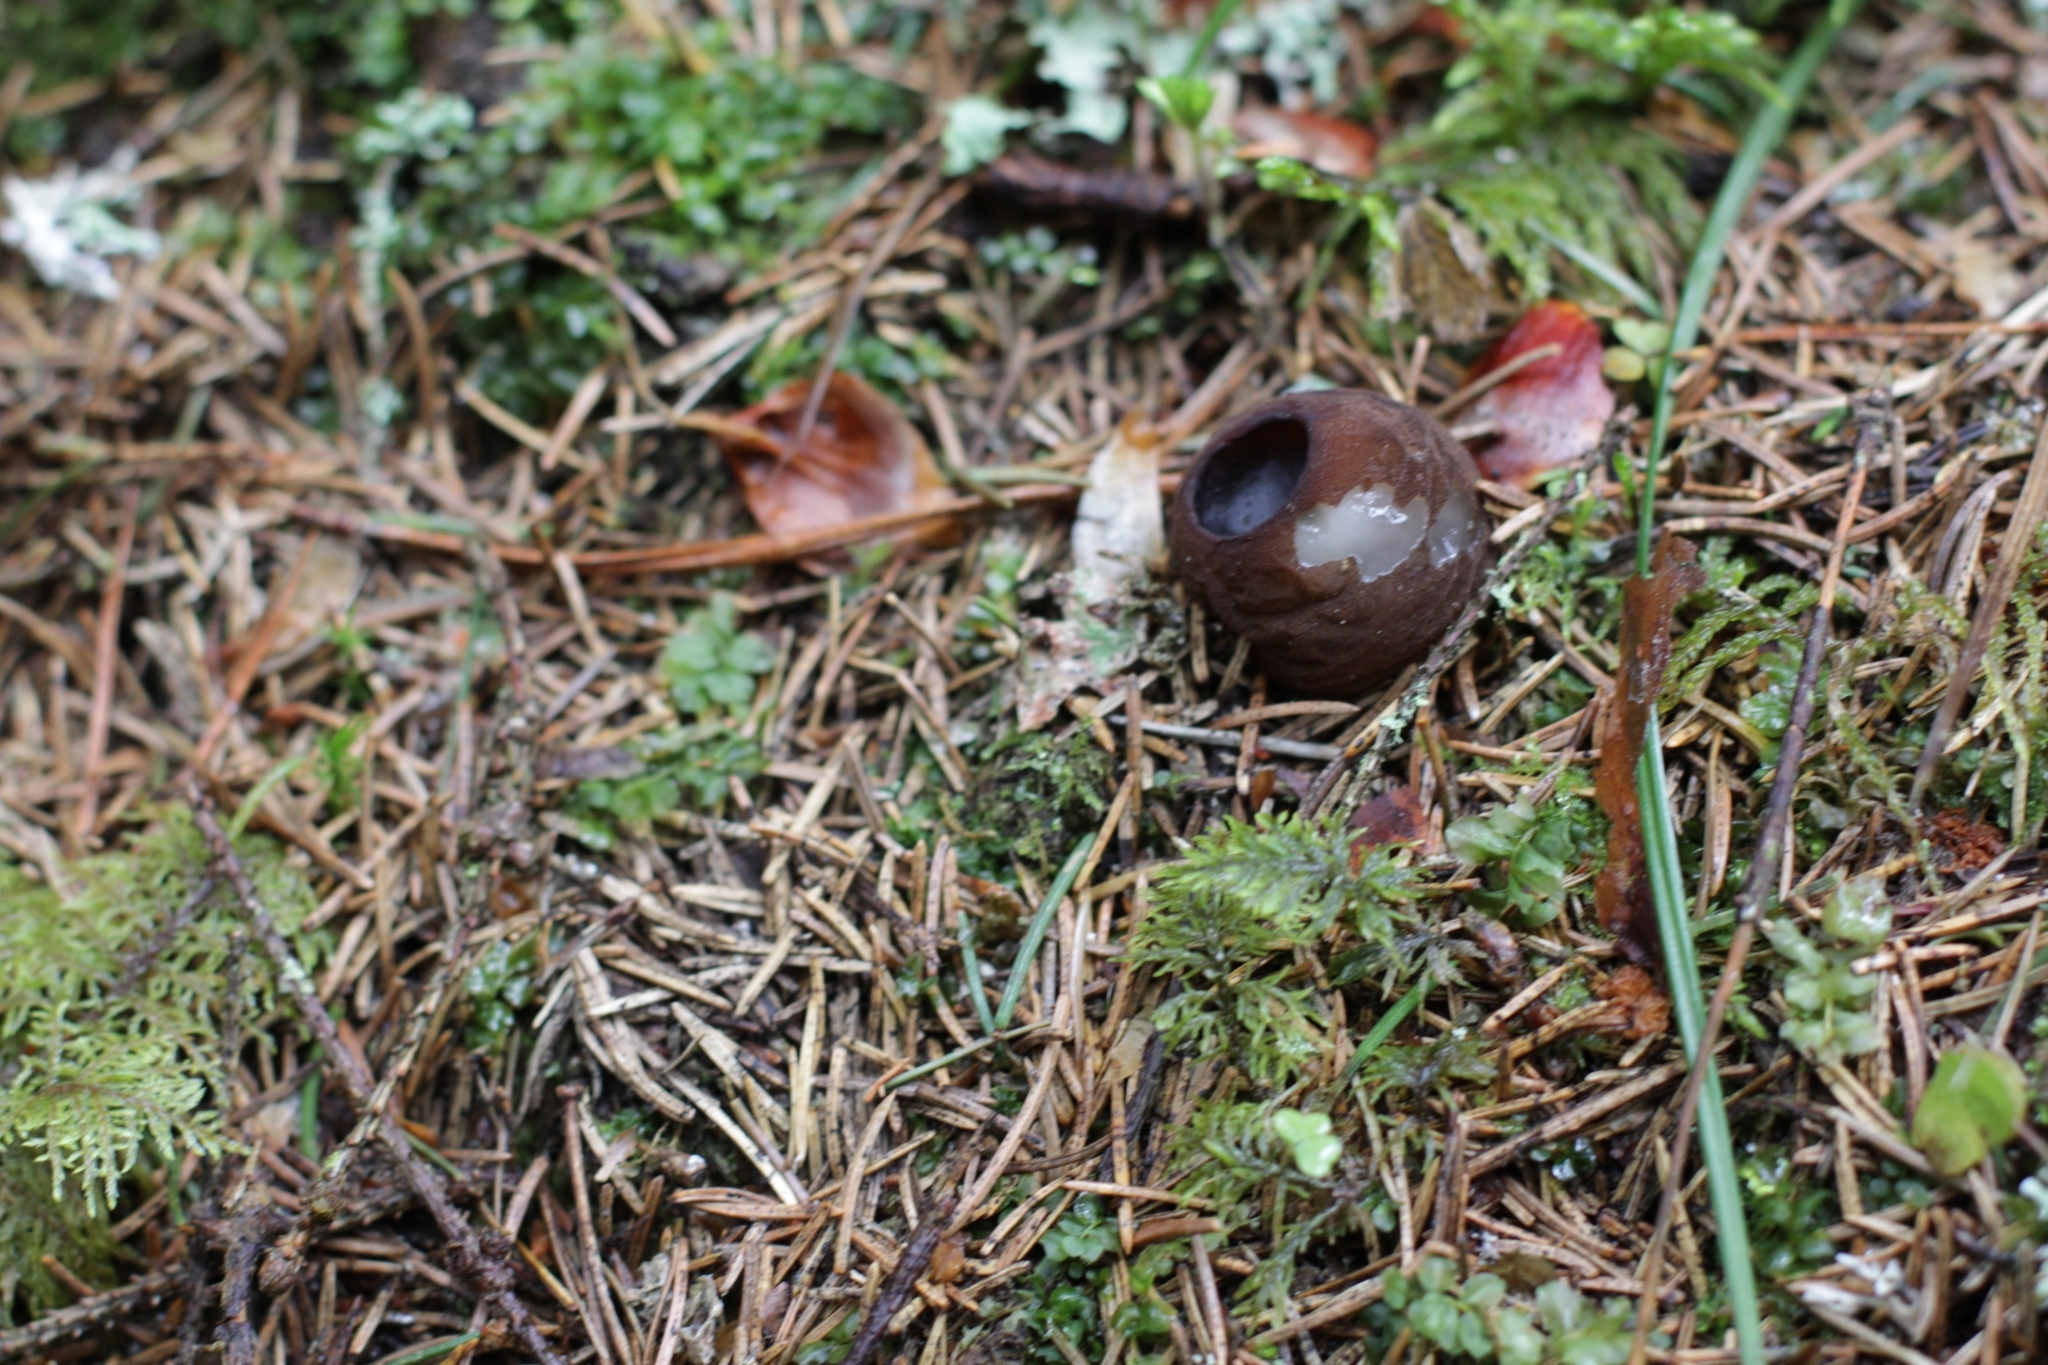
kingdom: Fungi
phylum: Ascomycota
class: Pezizomycetes
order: Pezizales
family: Sarcosomataceae
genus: Sarcosoma
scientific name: Sarcosoma globosum
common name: Charred-pancake cup
